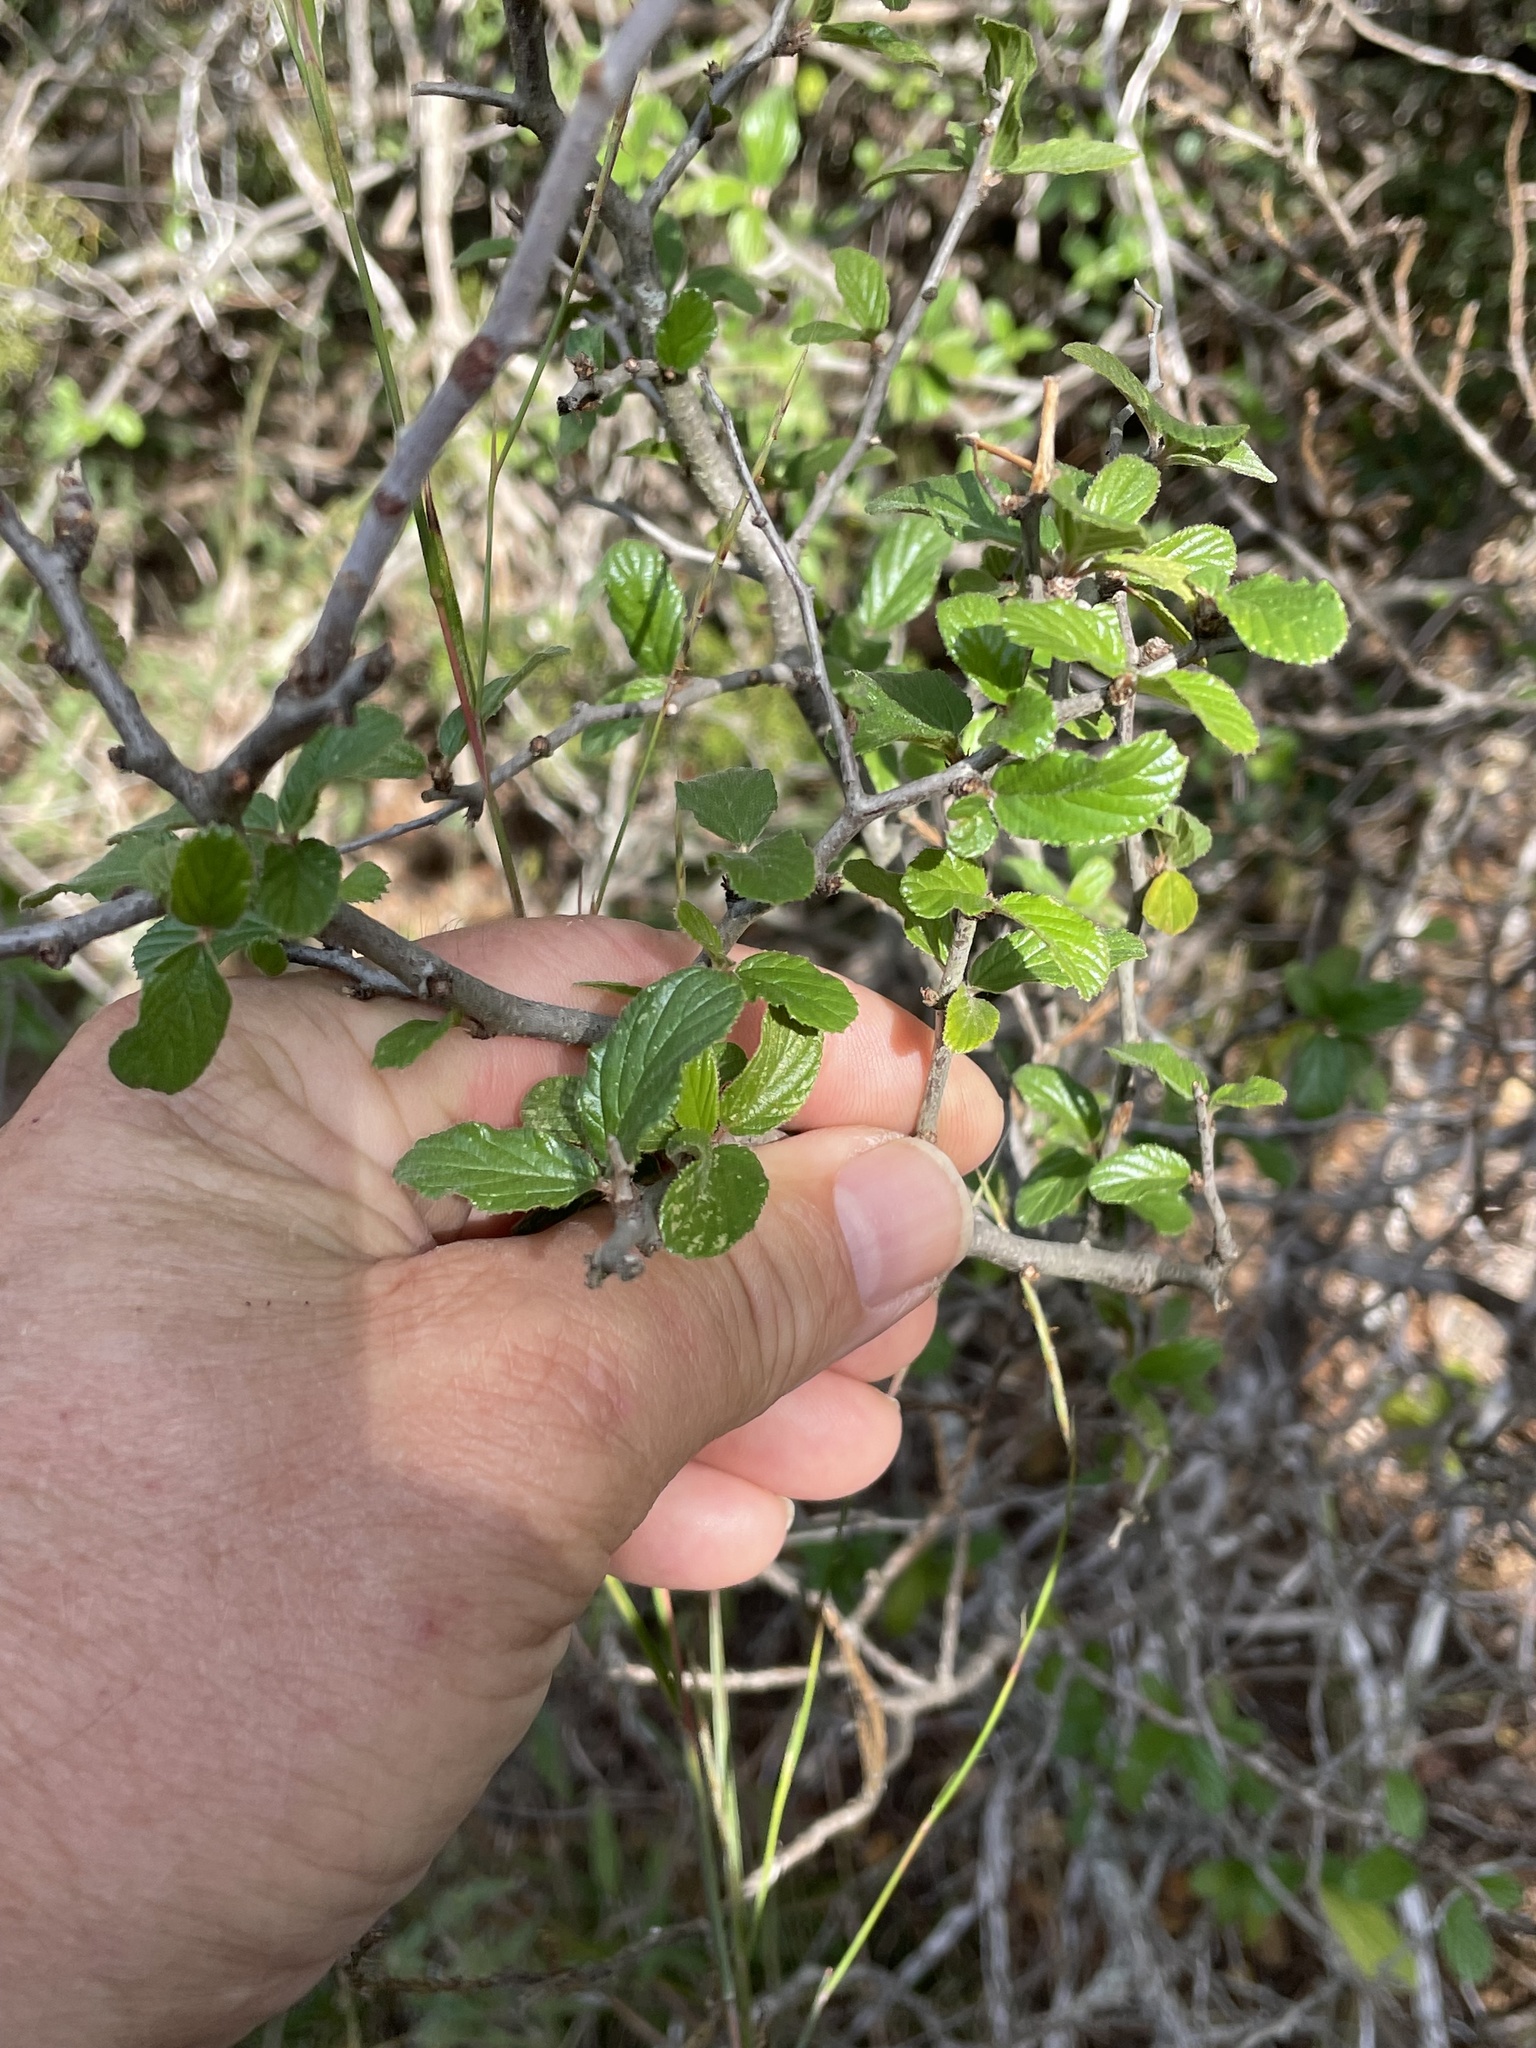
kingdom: Plantae
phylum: Tracheophyta
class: Magnoliopsida
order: Rosales
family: Rhamnaceae
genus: Colubrina
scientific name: Colubrina texensis
